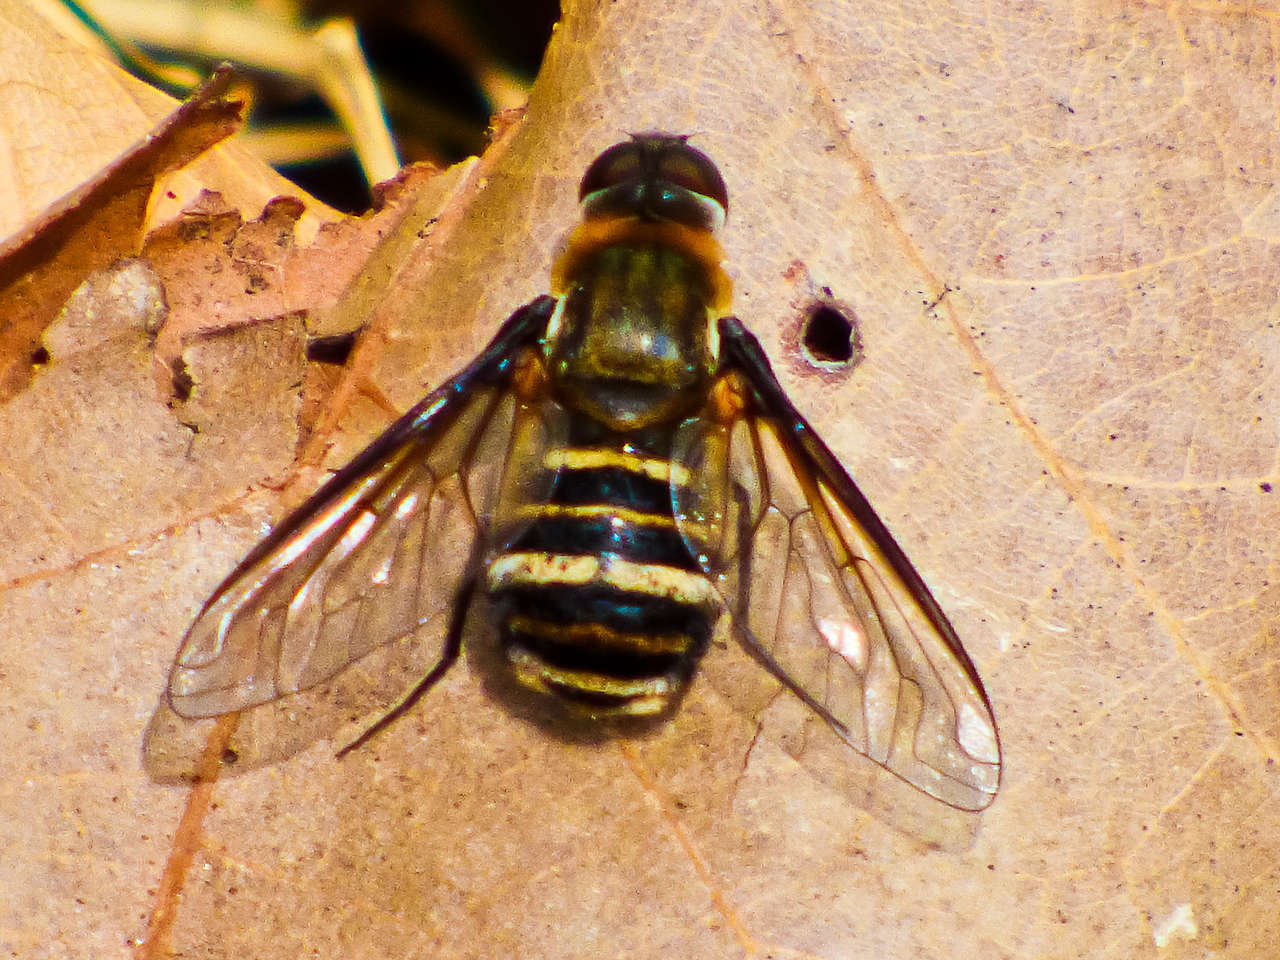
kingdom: Animalia
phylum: Arthropoda
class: Insecta
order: Diptera
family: Bombyliidae
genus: Villa
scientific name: Villa
